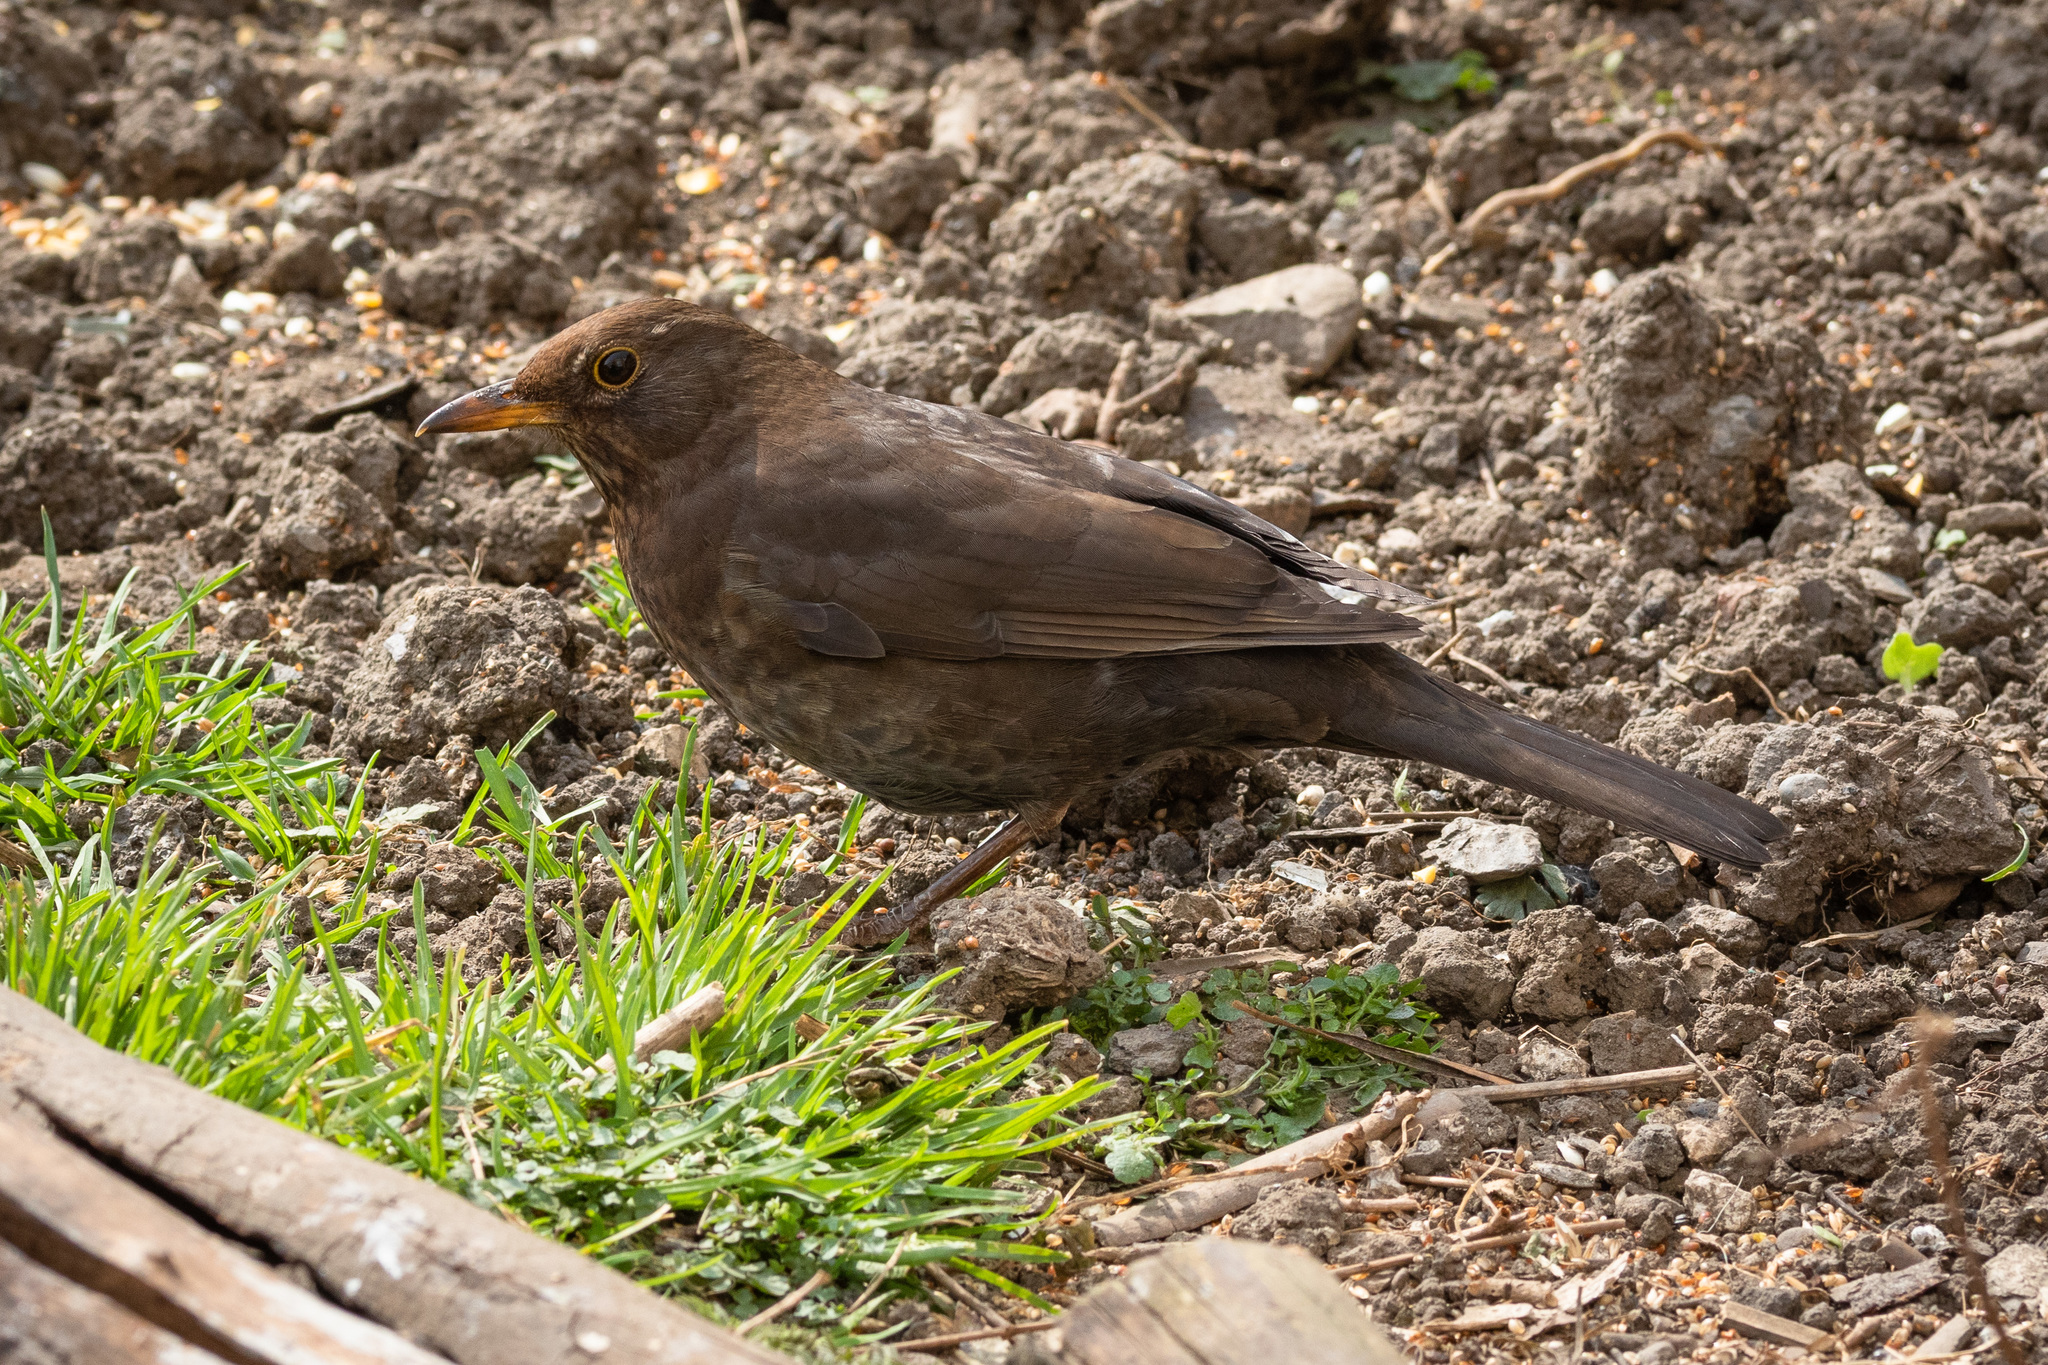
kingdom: Animalia
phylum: Chordata
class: Aves
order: Passeriformes
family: Turdidae
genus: Turdus
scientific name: Turdus merula
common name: Common blackbird
